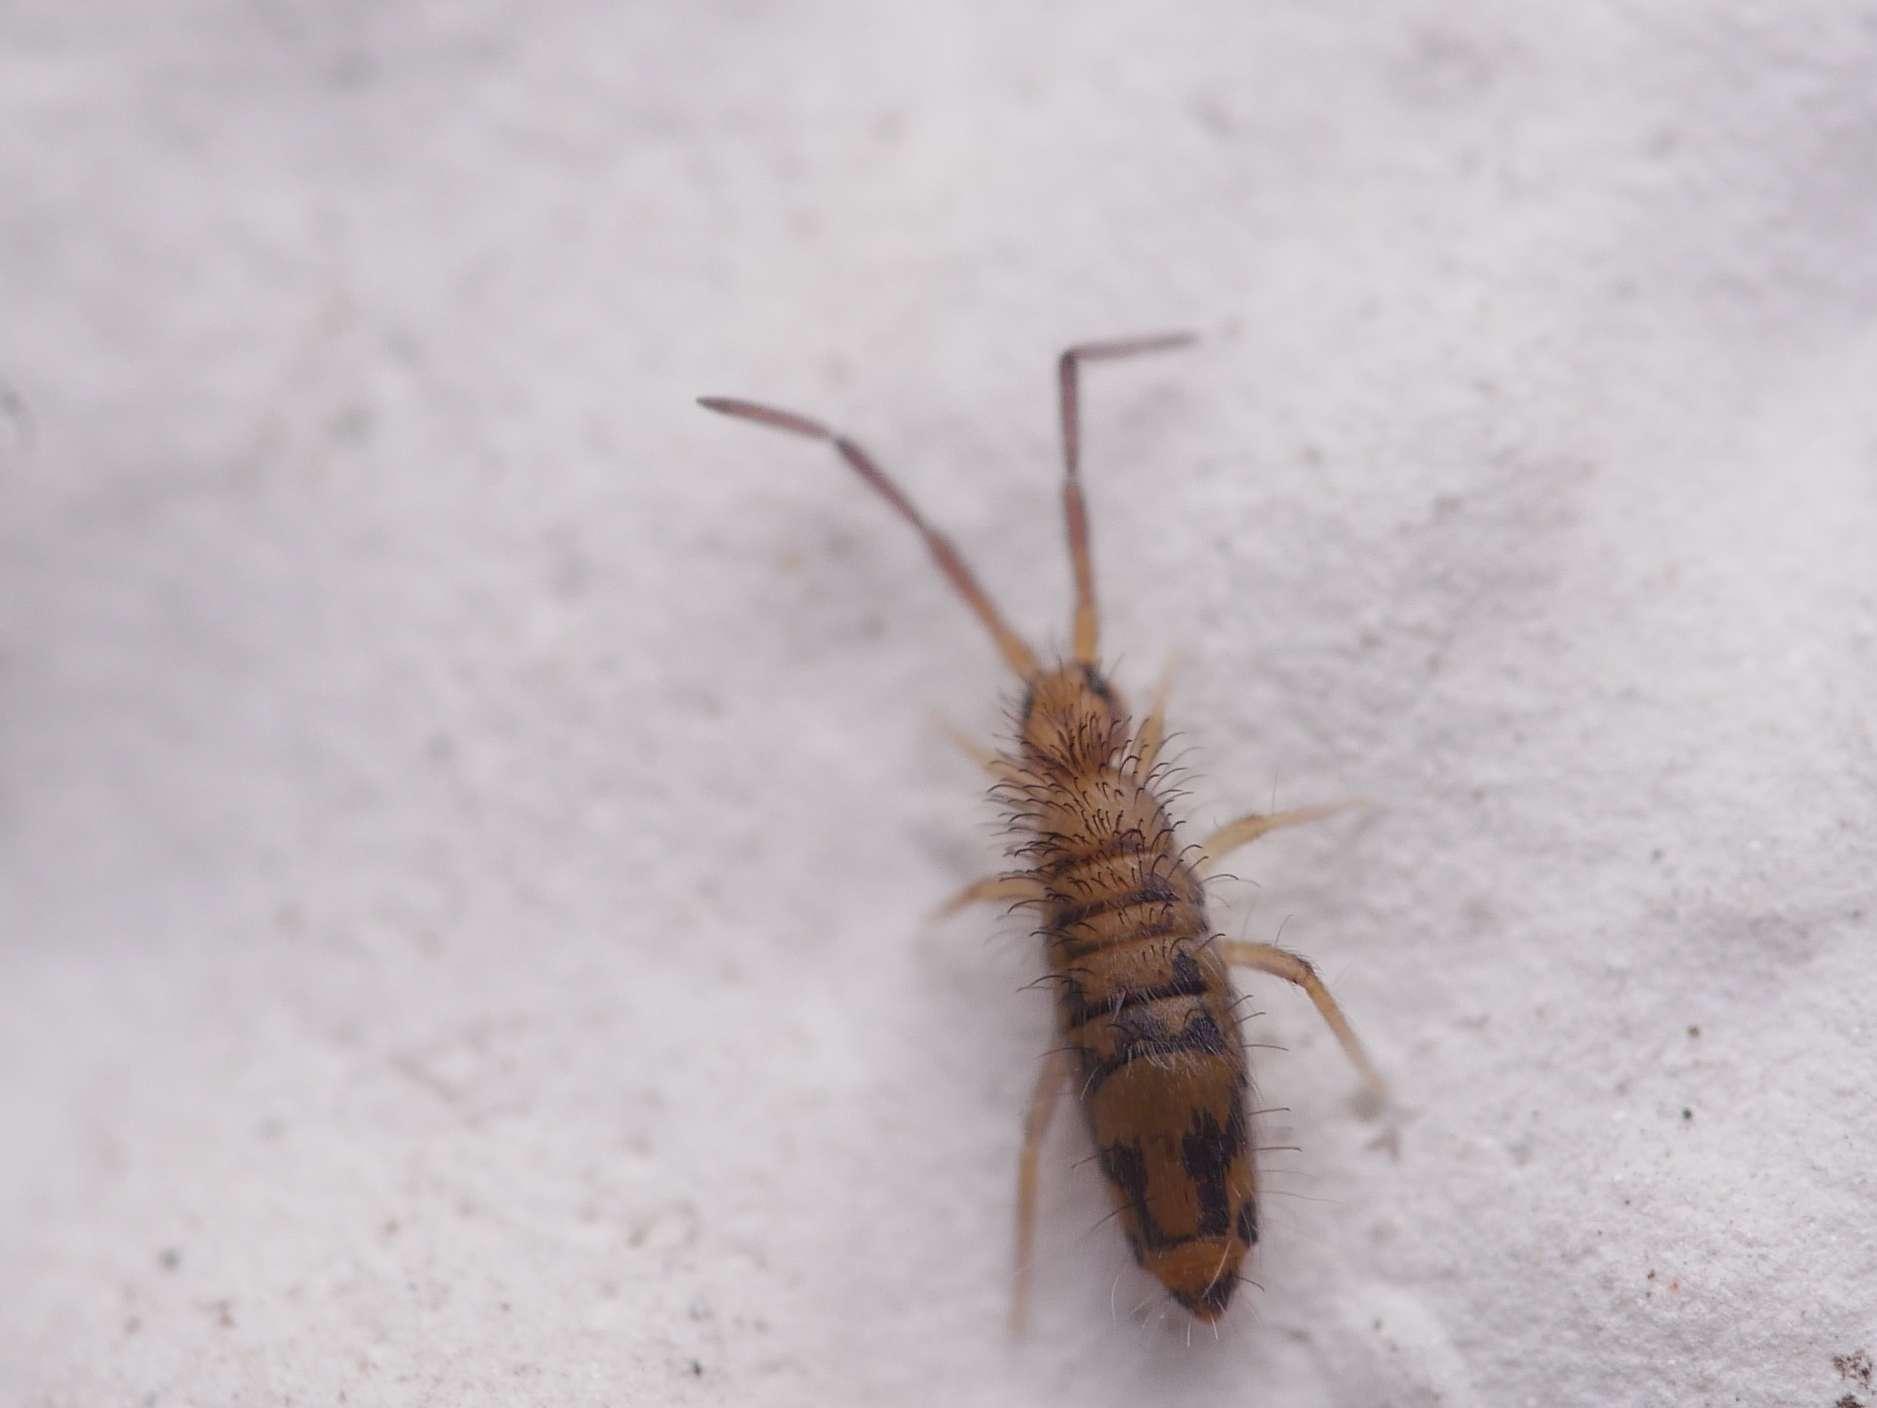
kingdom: Animalia
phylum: Arthropoda
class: Collembola
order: Entomobryomorpha
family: Entomobryidae
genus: Entomobrya
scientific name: Entomobrya nivalis
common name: Cosmopolitan springtail
